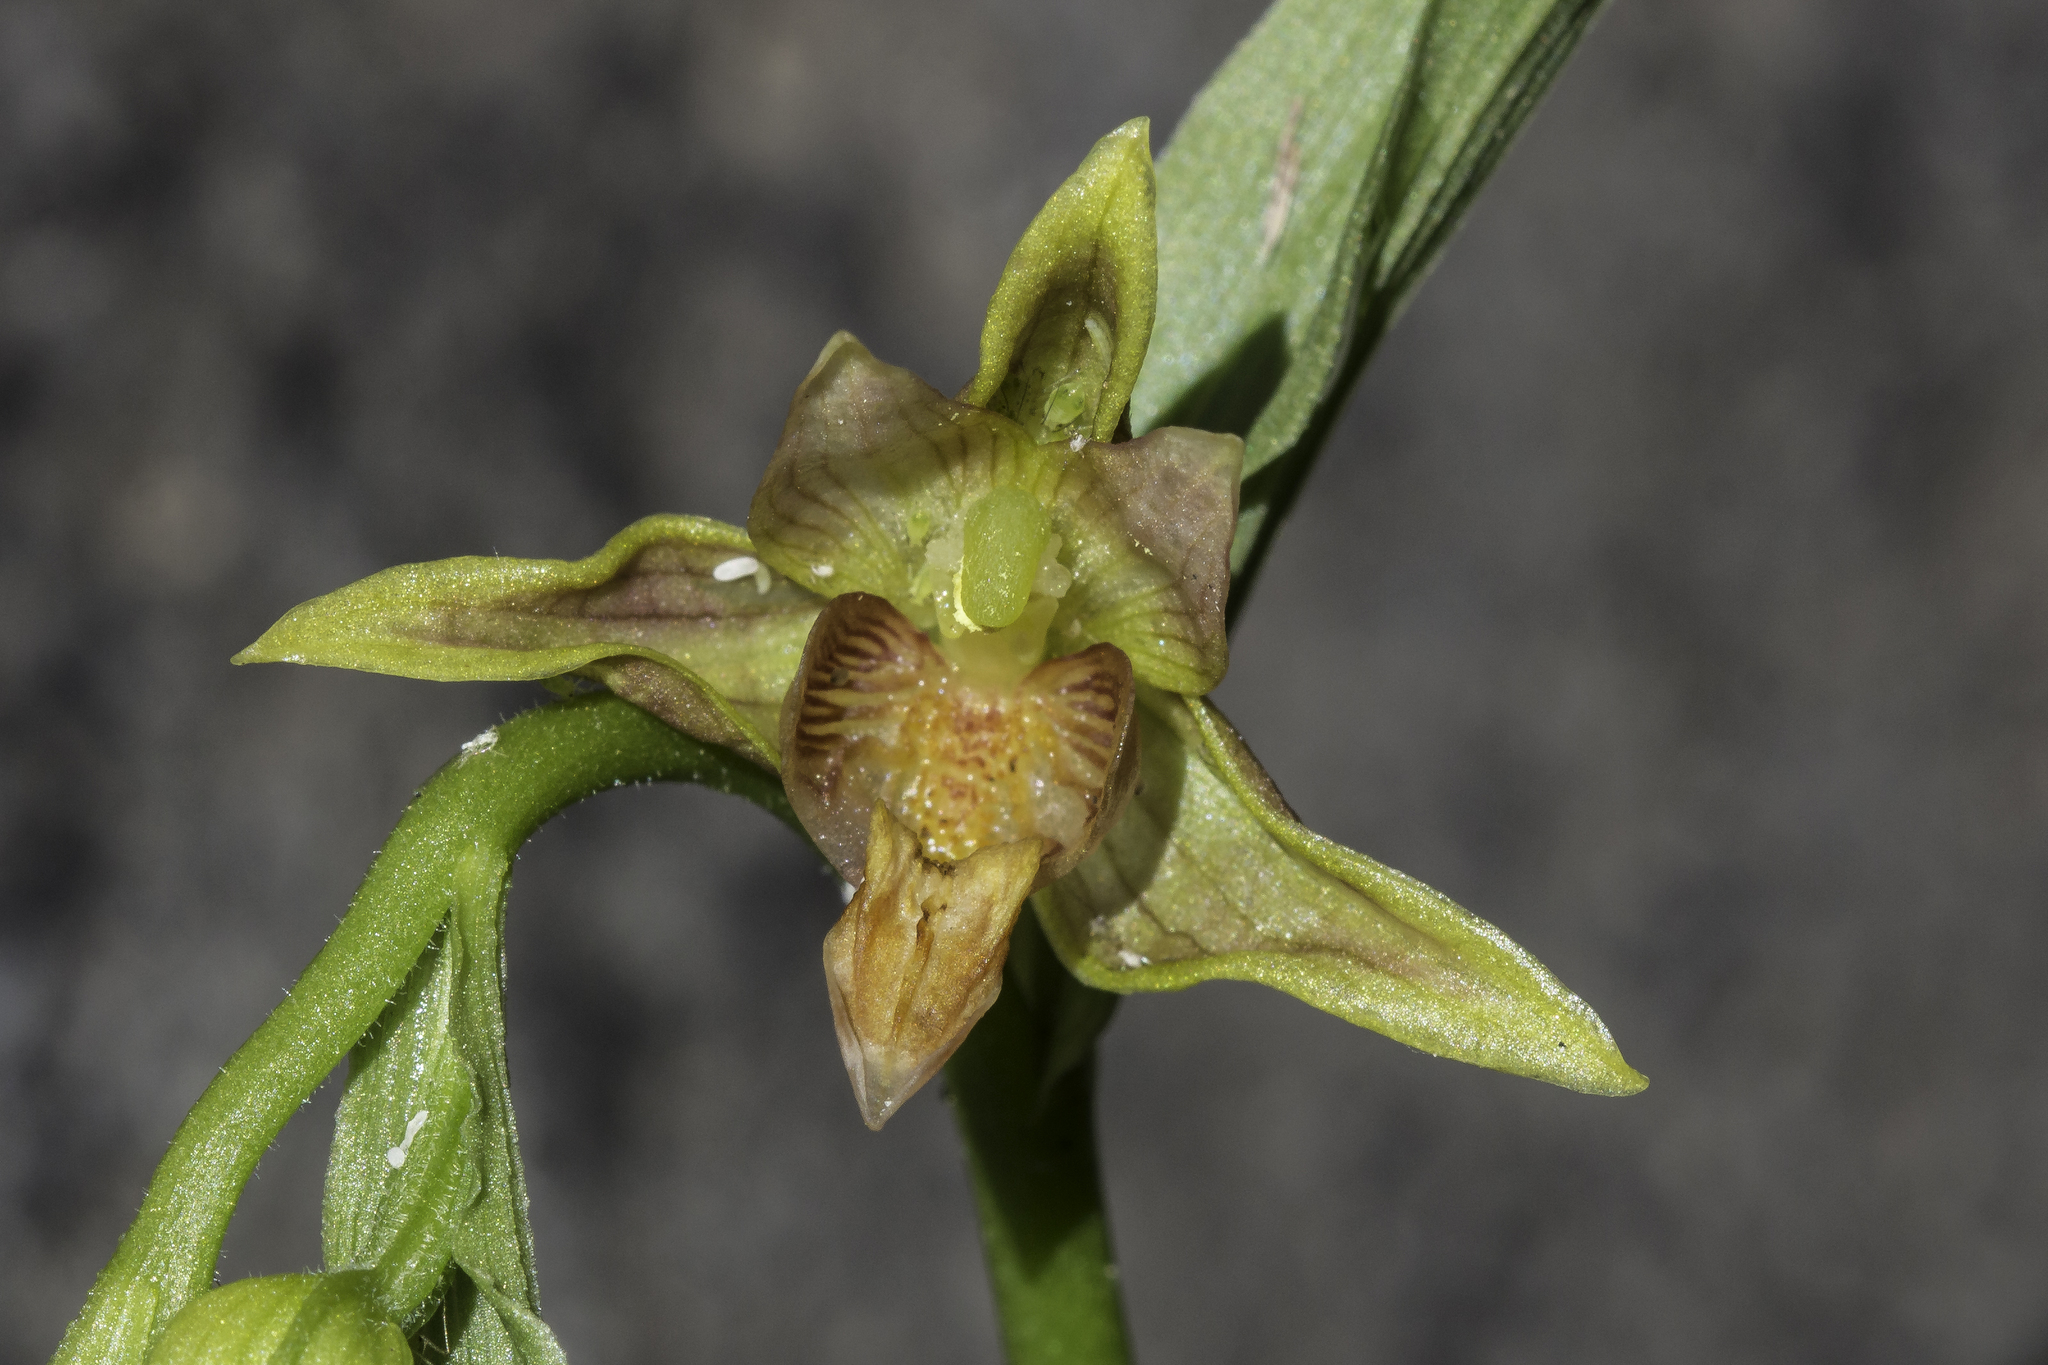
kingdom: Plantae
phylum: Tracheophyta
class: Liliopsida
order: Asparagales
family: Orchidaceae
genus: Epipactis
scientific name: Epipactis gigantea
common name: Chatterbox
